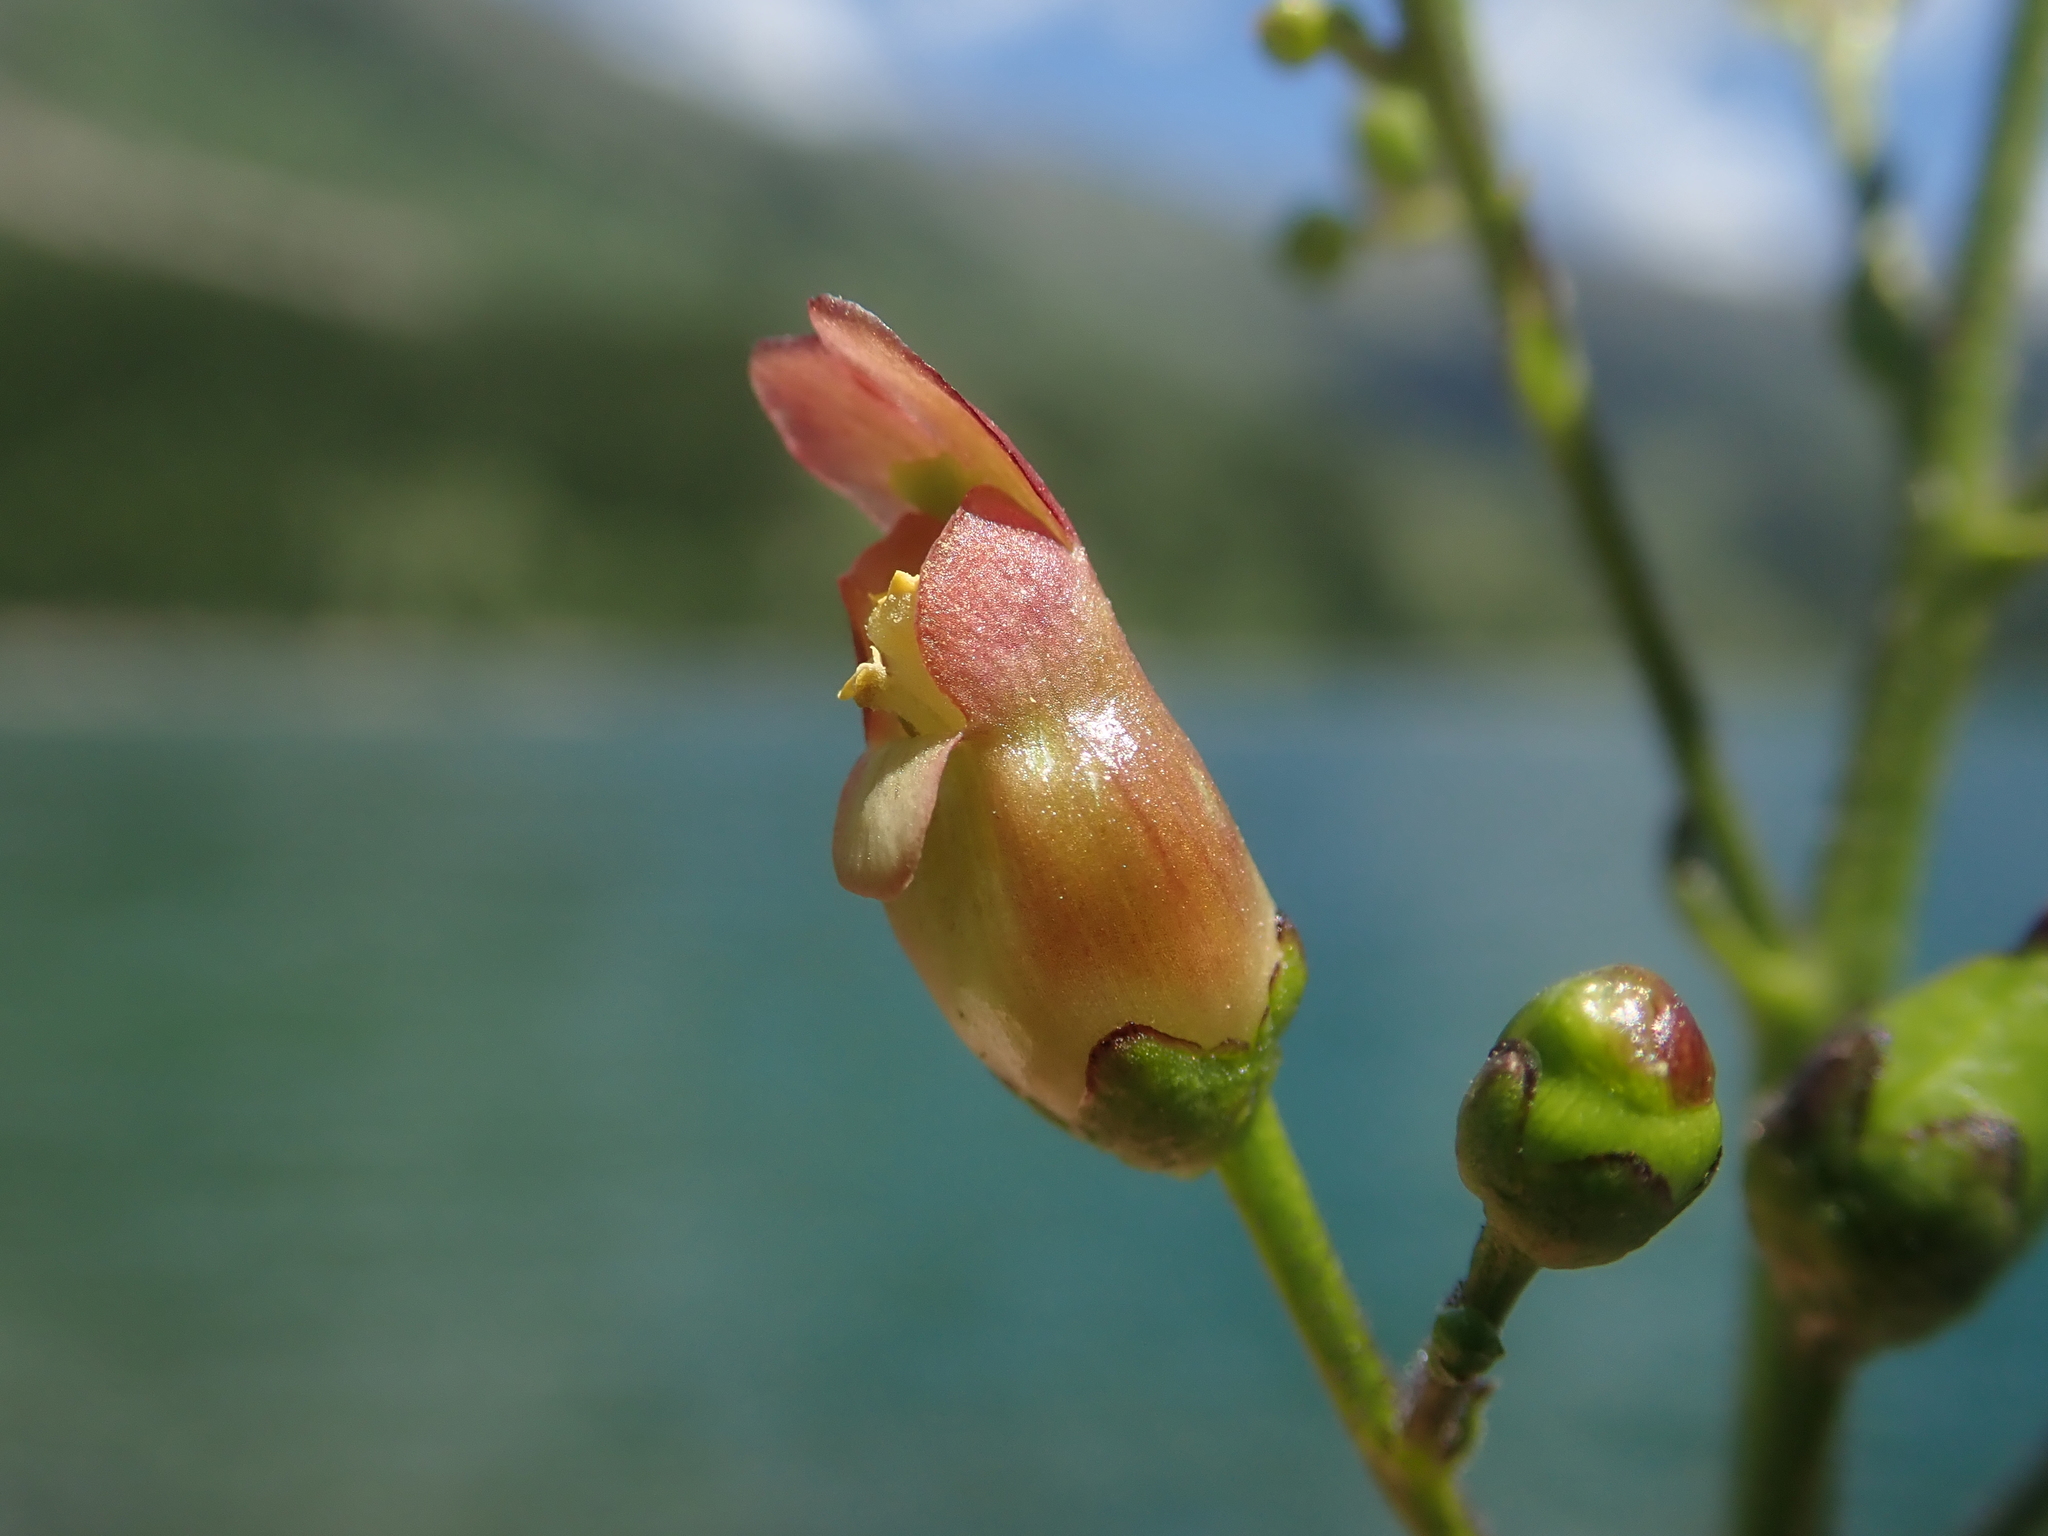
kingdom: Plantae
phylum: Tracheophyta
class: Magnoliopsida
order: Lamiales
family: Scrophulariaceae
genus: Scrophularia
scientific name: Scrophularia lanceolata
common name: American figwort
